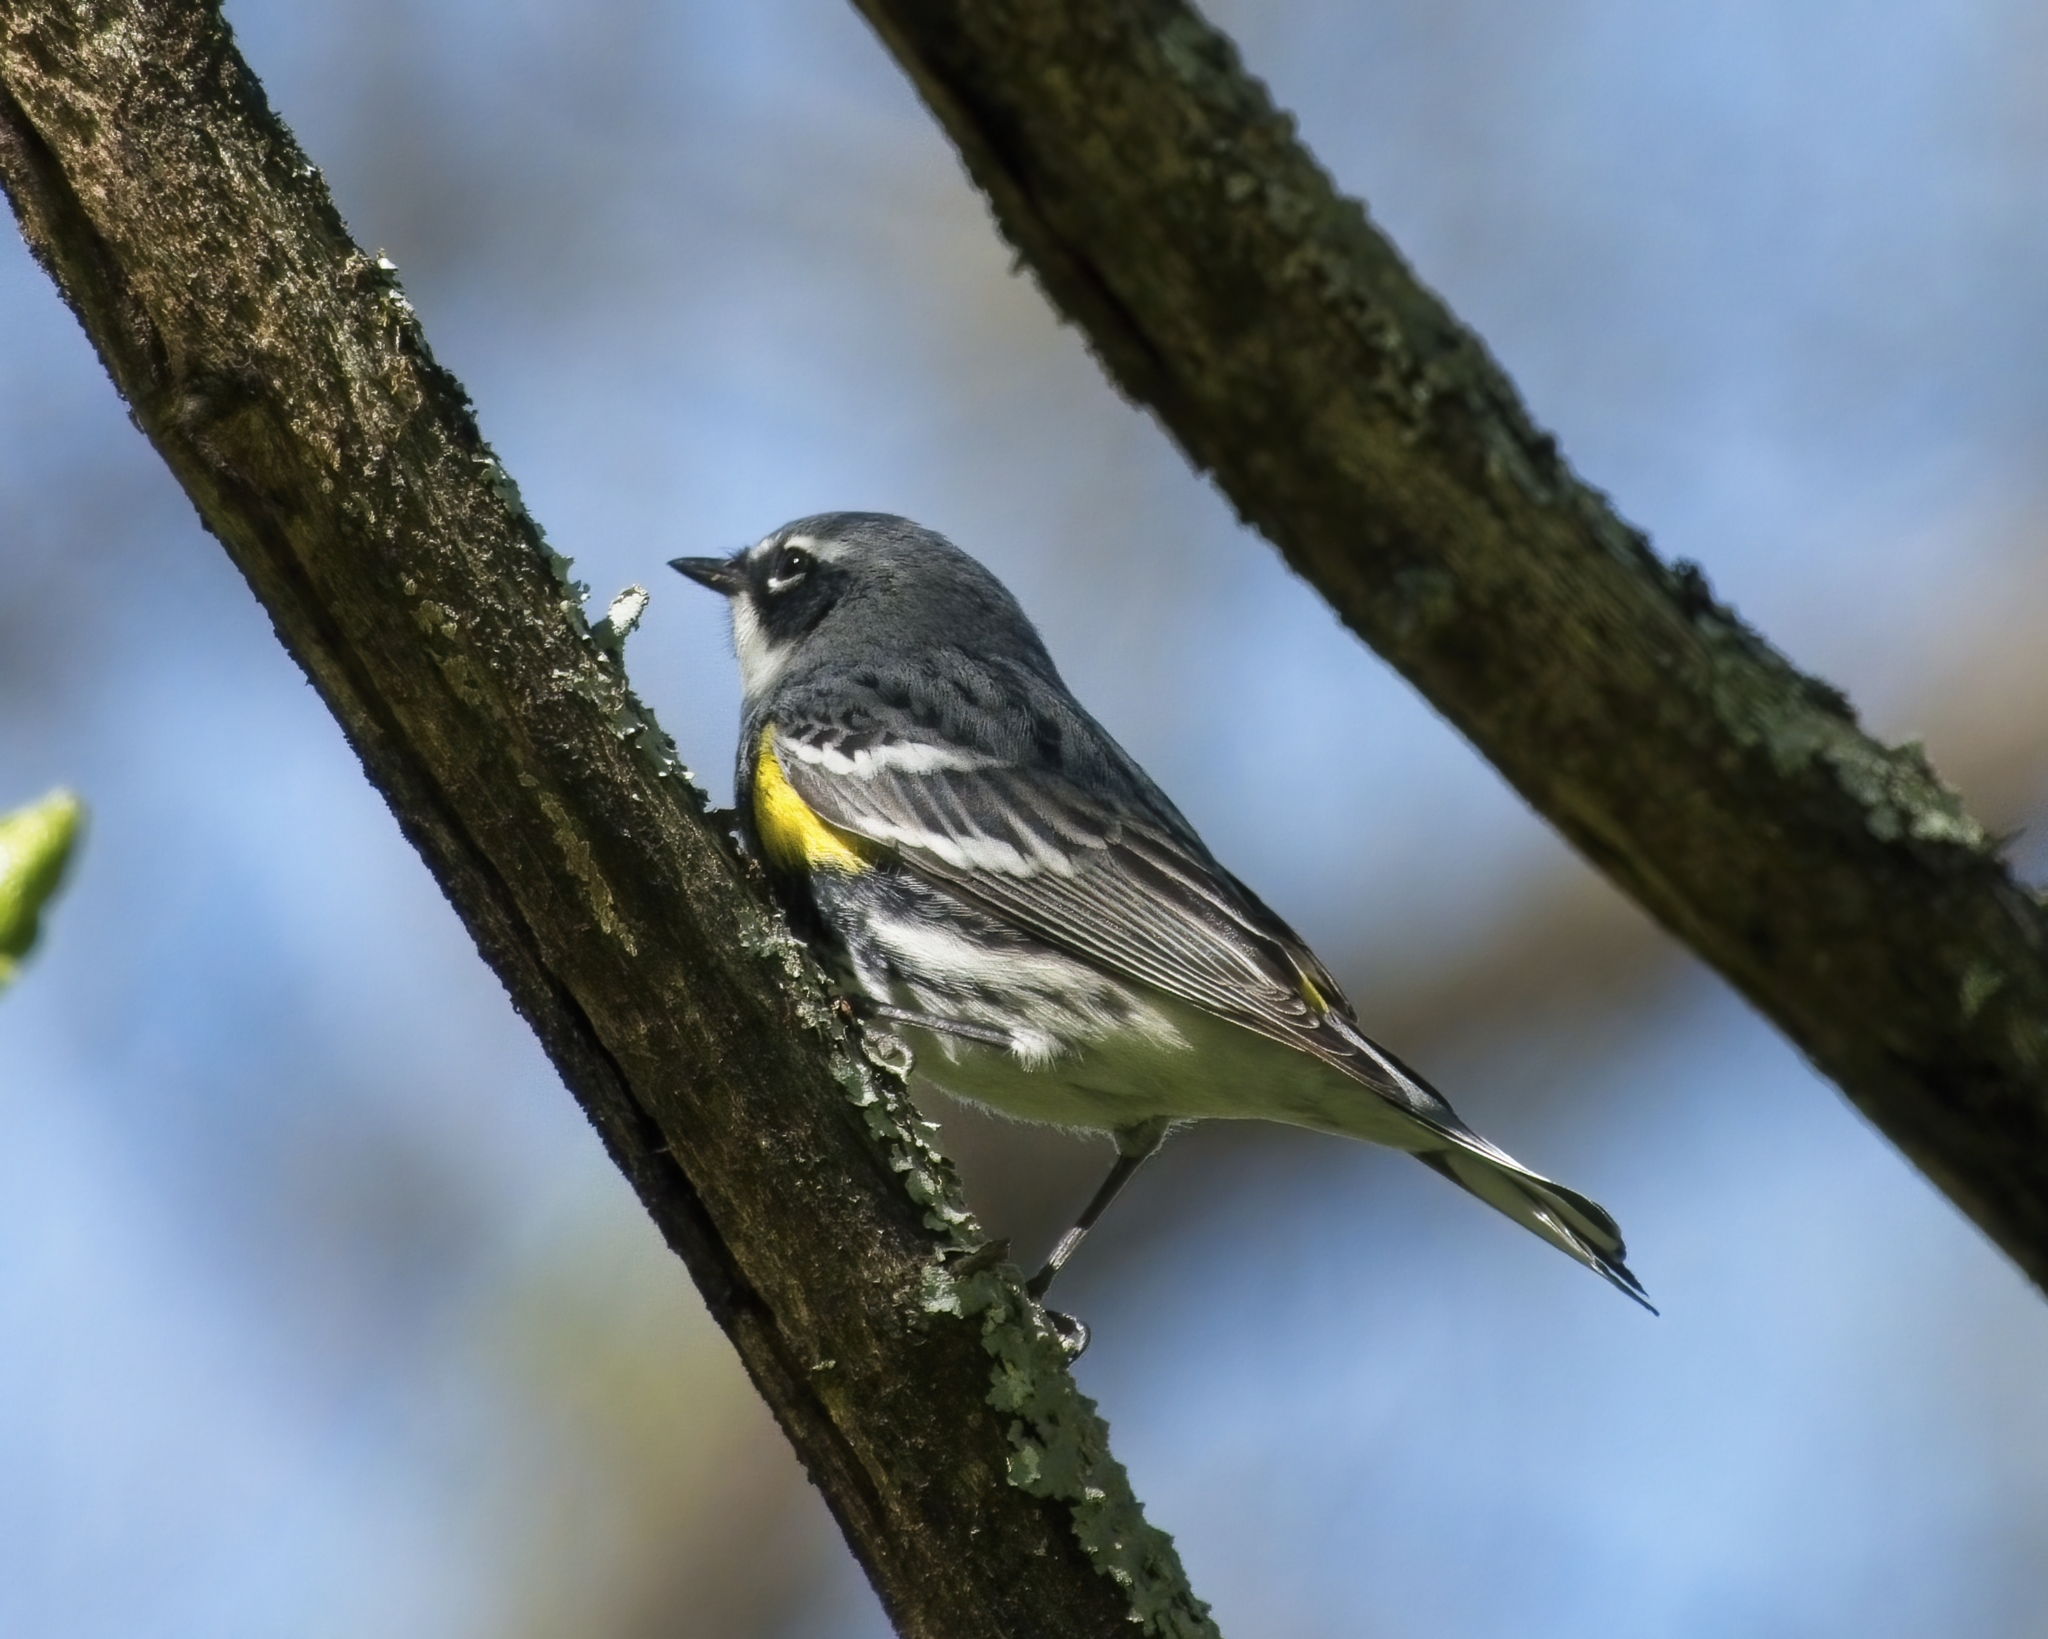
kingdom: Animalia
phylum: Chordata
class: Aves
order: Passeriformes
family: Parulidae
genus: Setophaga
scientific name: Setophaga coronata
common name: Myrtle warbler
